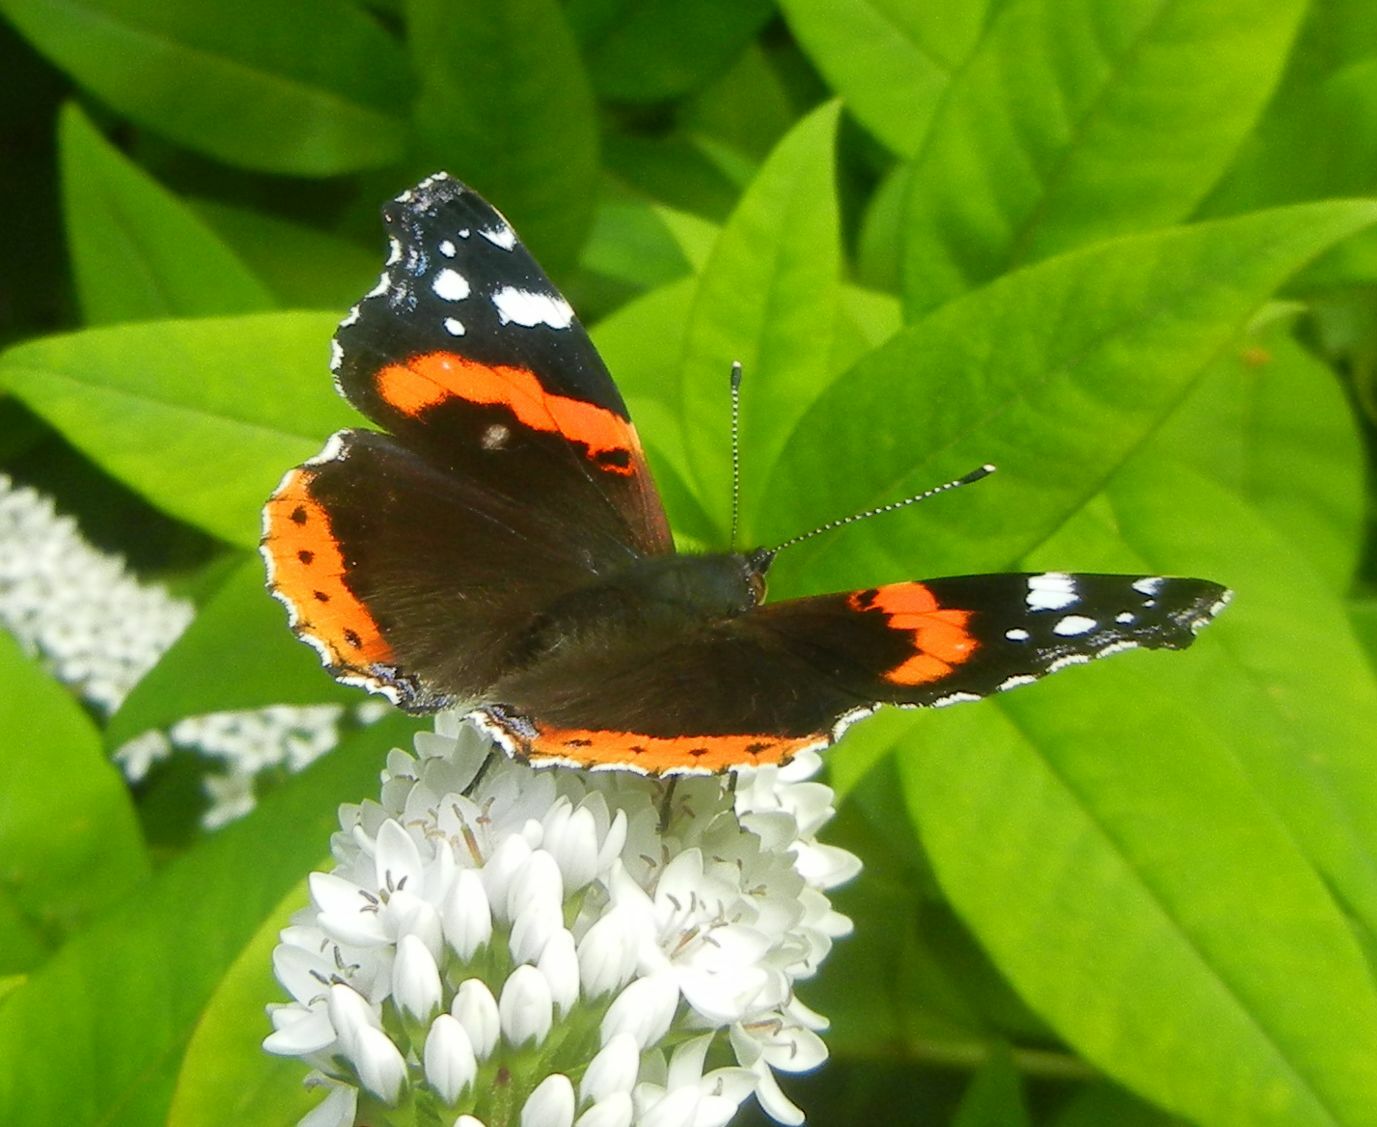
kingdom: Animalia
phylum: Arthropoda
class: Insecta
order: Lepidoptera
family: Nymphalidae
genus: Vanessa
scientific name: Vanessa atalanta
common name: Red admiral
